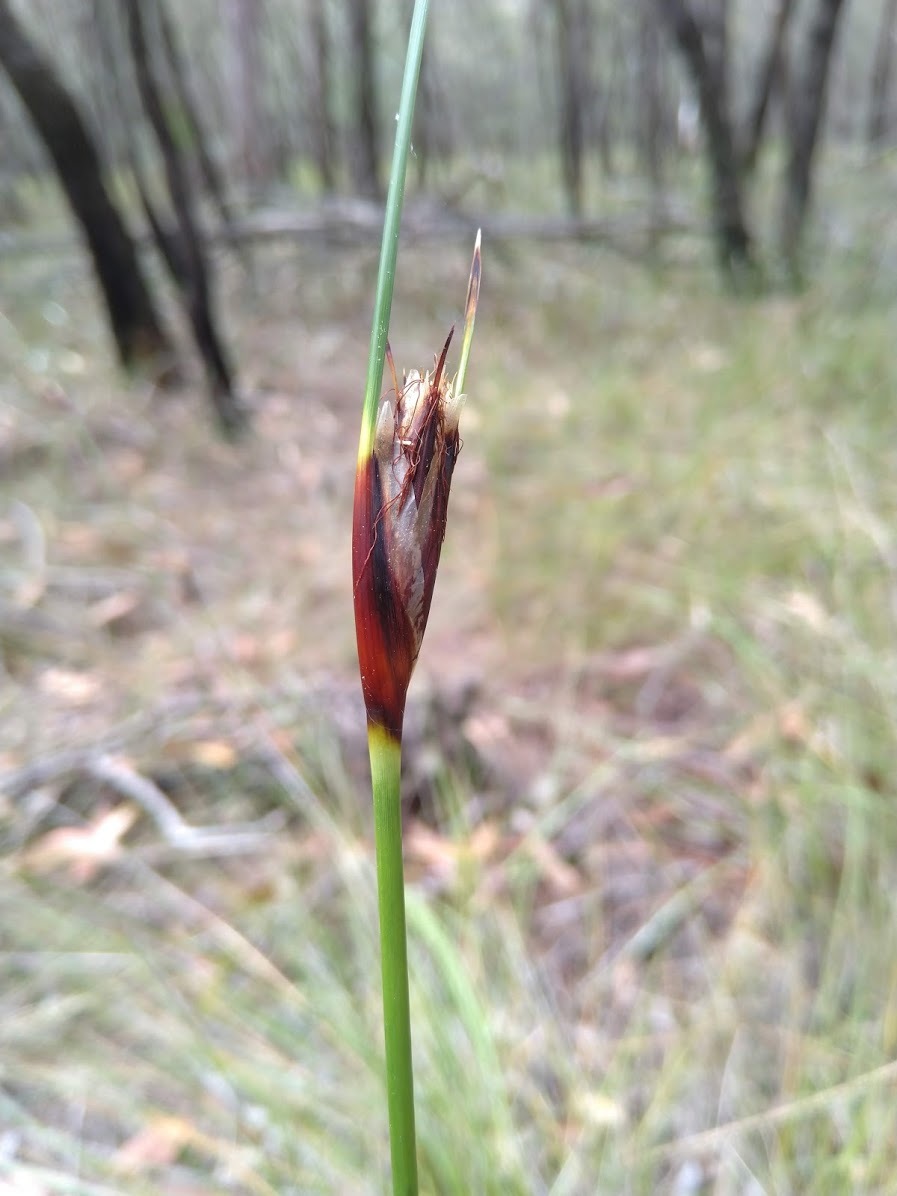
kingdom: Plantae
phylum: Tracheophyta
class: Liliopsida
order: Poales
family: Cyperaceae
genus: Ptilothrix
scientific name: Ptilothrix deusta
